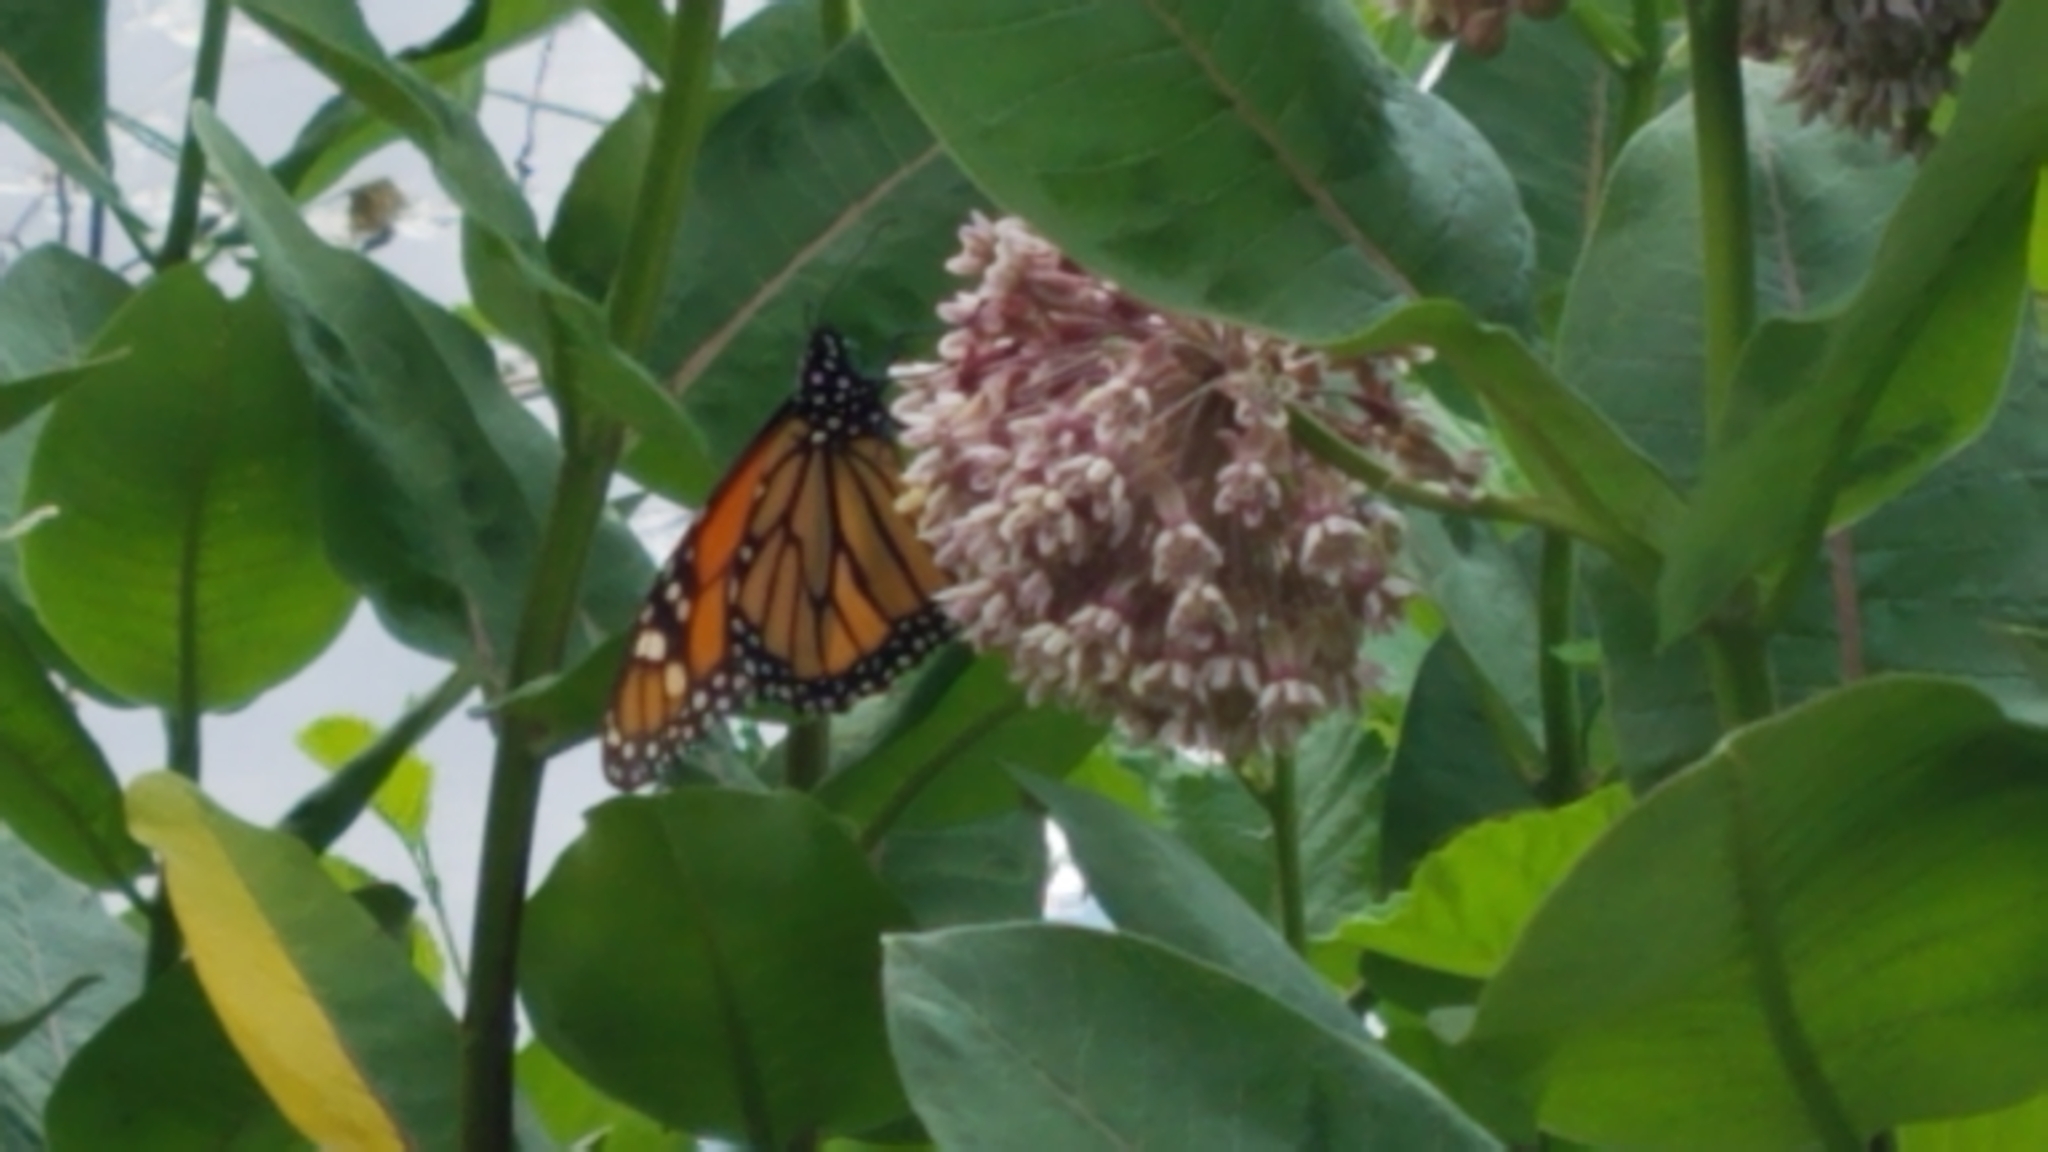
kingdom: Animalia
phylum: Arthropoda
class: Insecta
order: Lepidoptera
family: Nymphalidae
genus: Danaus
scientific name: Danaus plexippus
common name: Monarch
